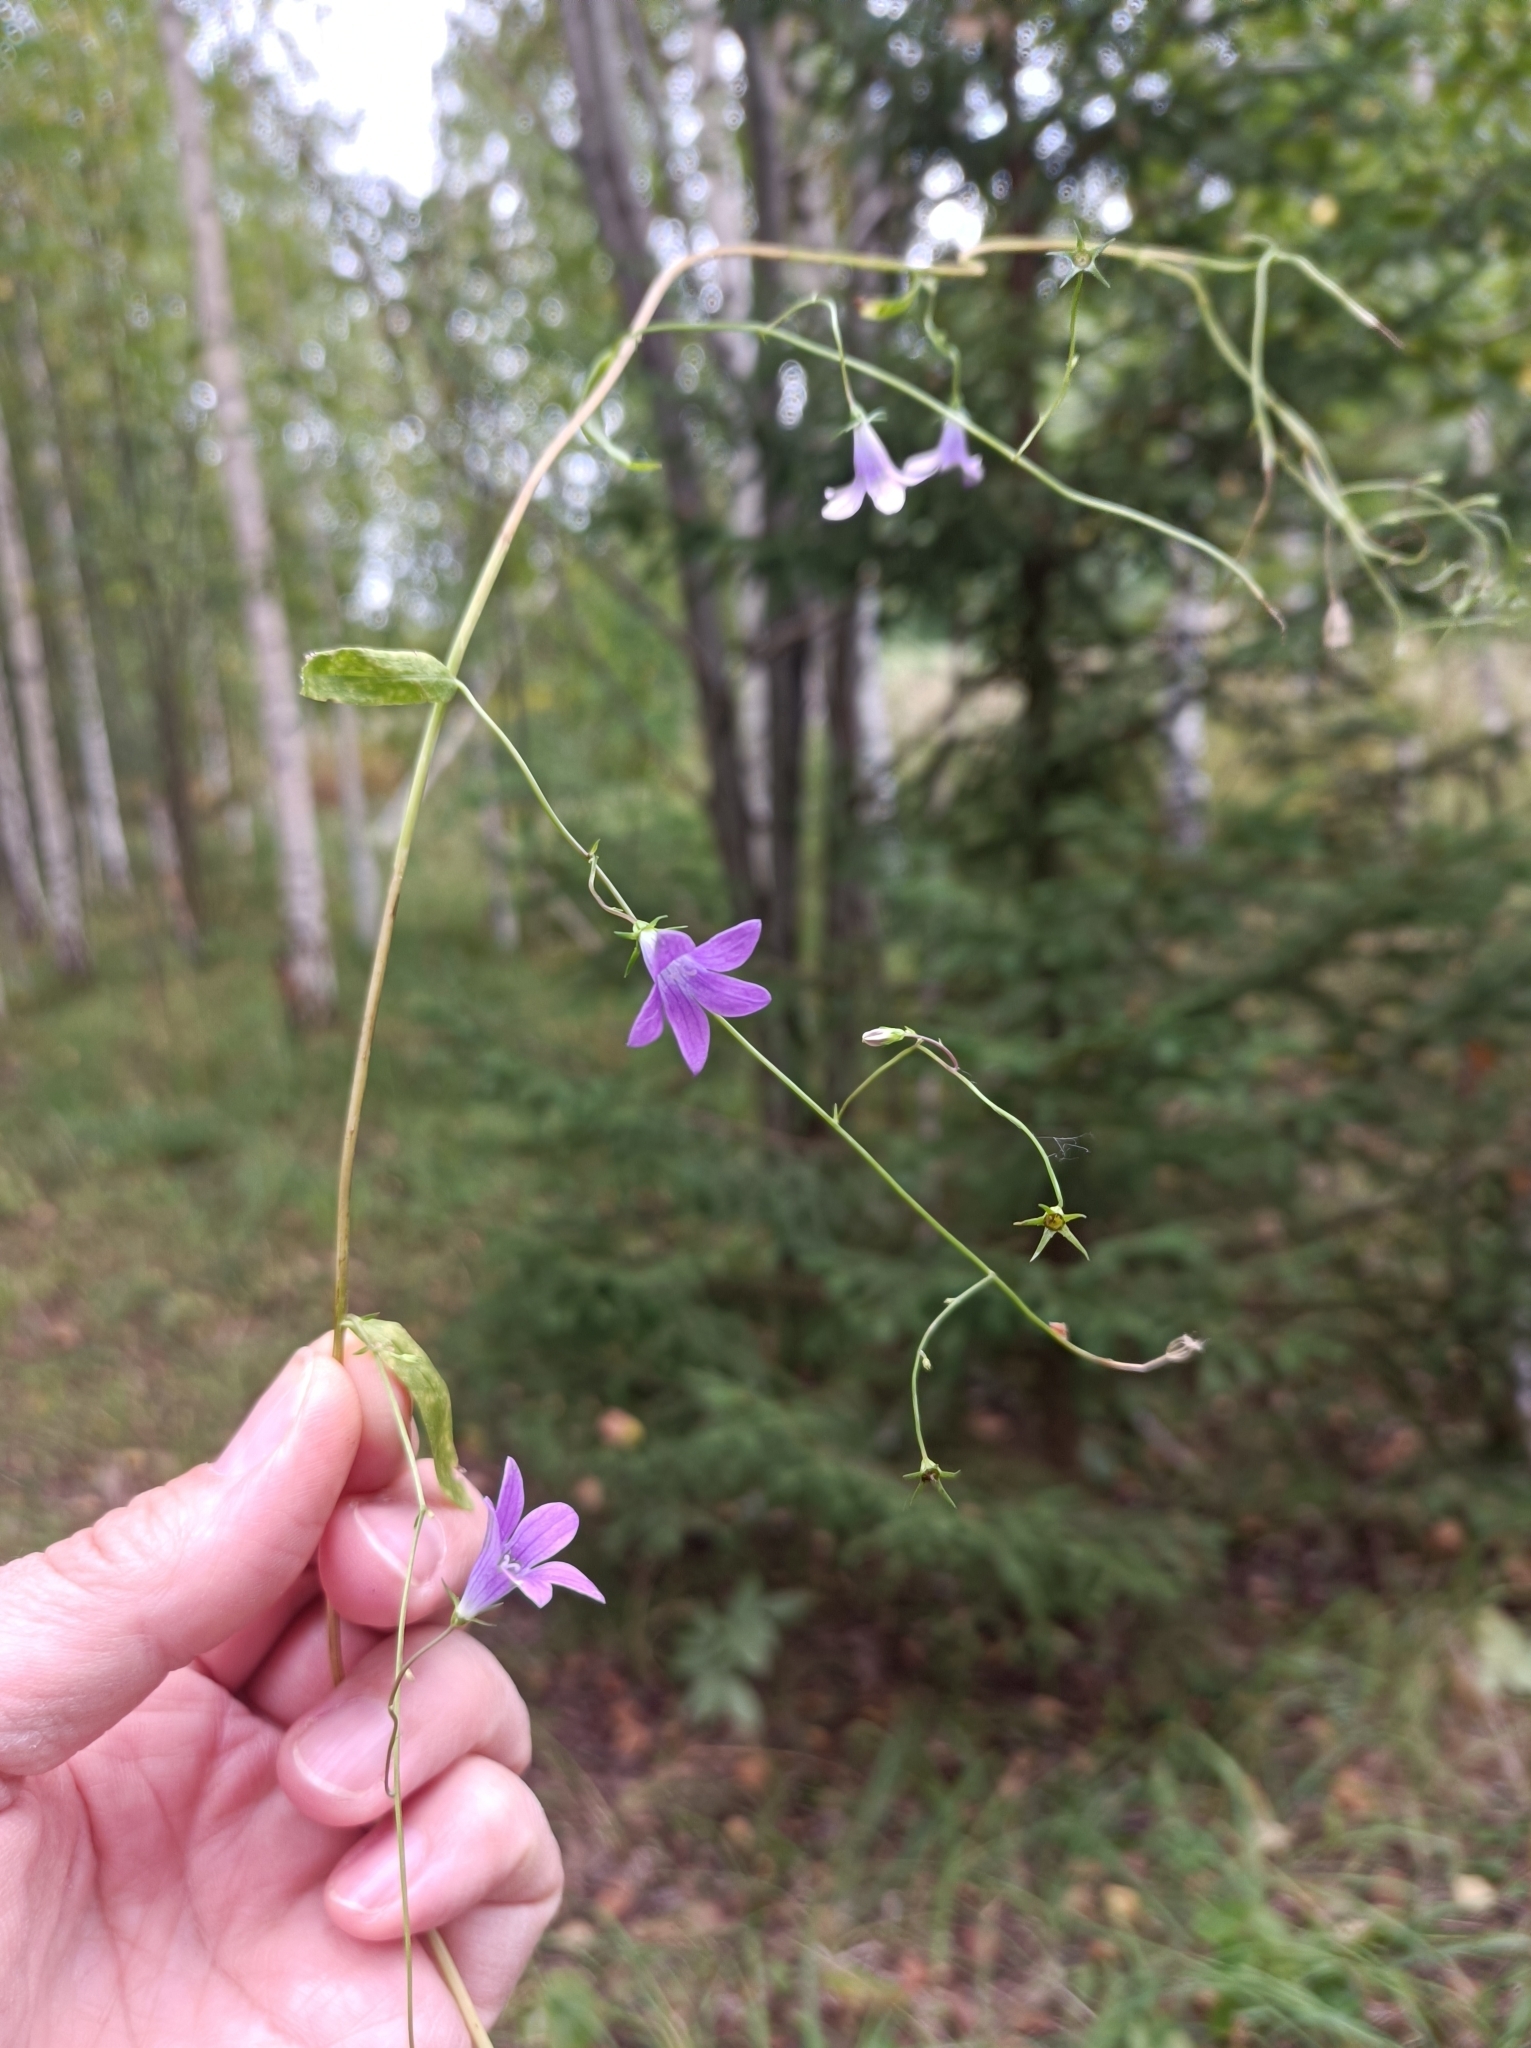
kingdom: Plantae
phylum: Tracheophyta
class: Magnoliopsida
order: Asterales
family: Campanulaceae
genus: Campanula
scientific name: Campanula patula
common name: Spreading bellflower
